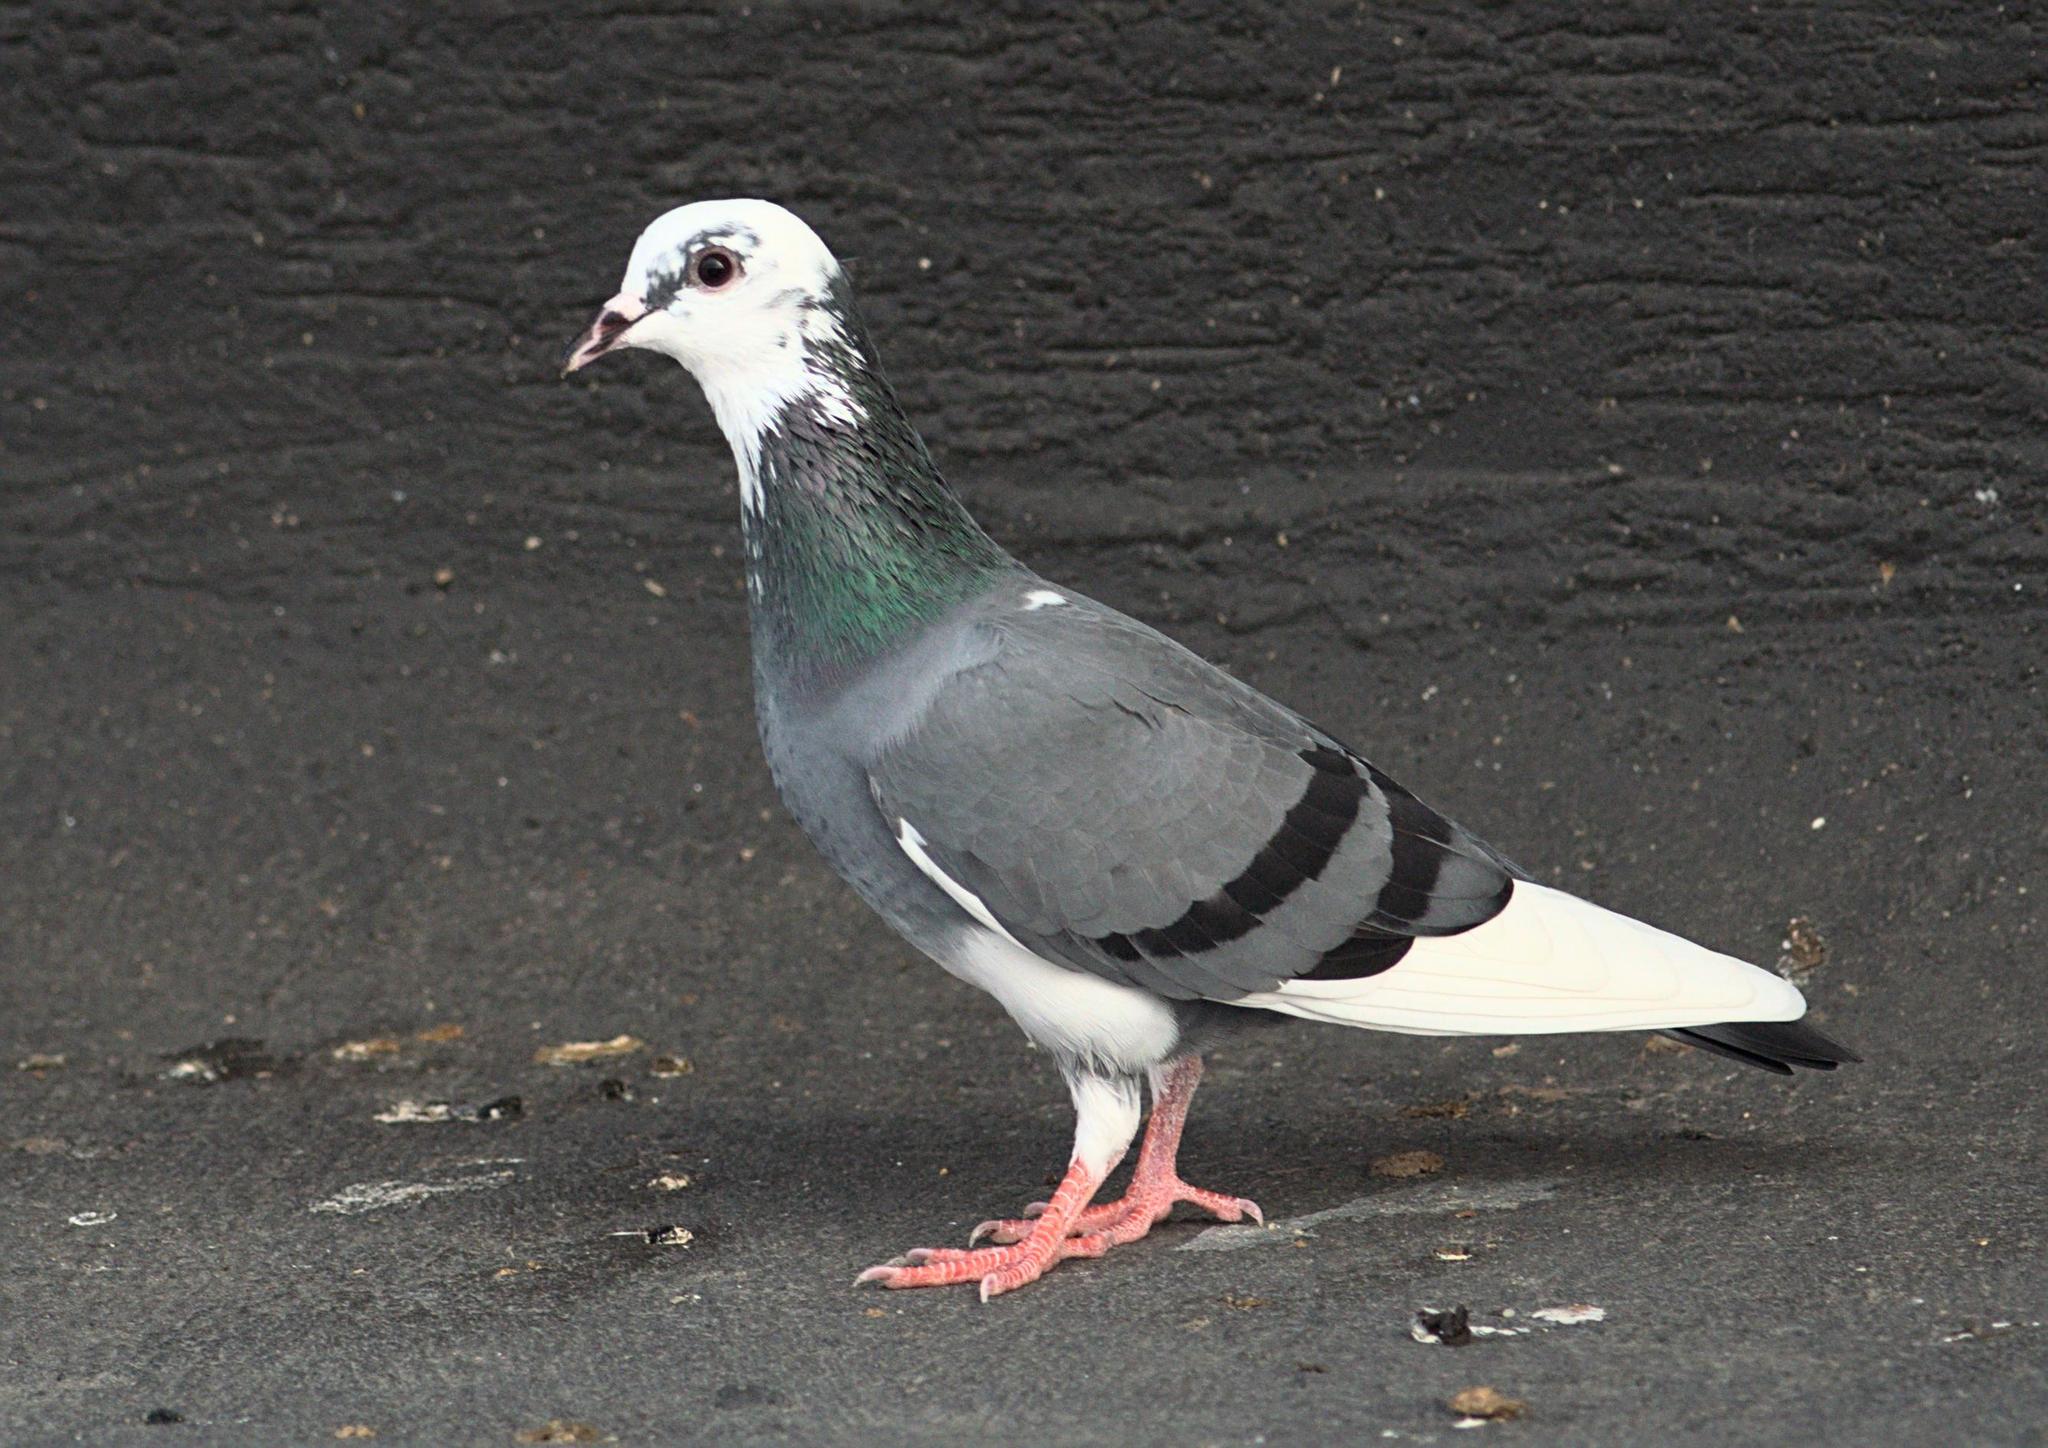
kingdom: Animalia
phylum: Chordata
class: Aves
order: Columbiformes
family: Columbidae
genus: Columba
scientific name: Columba livia
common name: Rock pigeon
